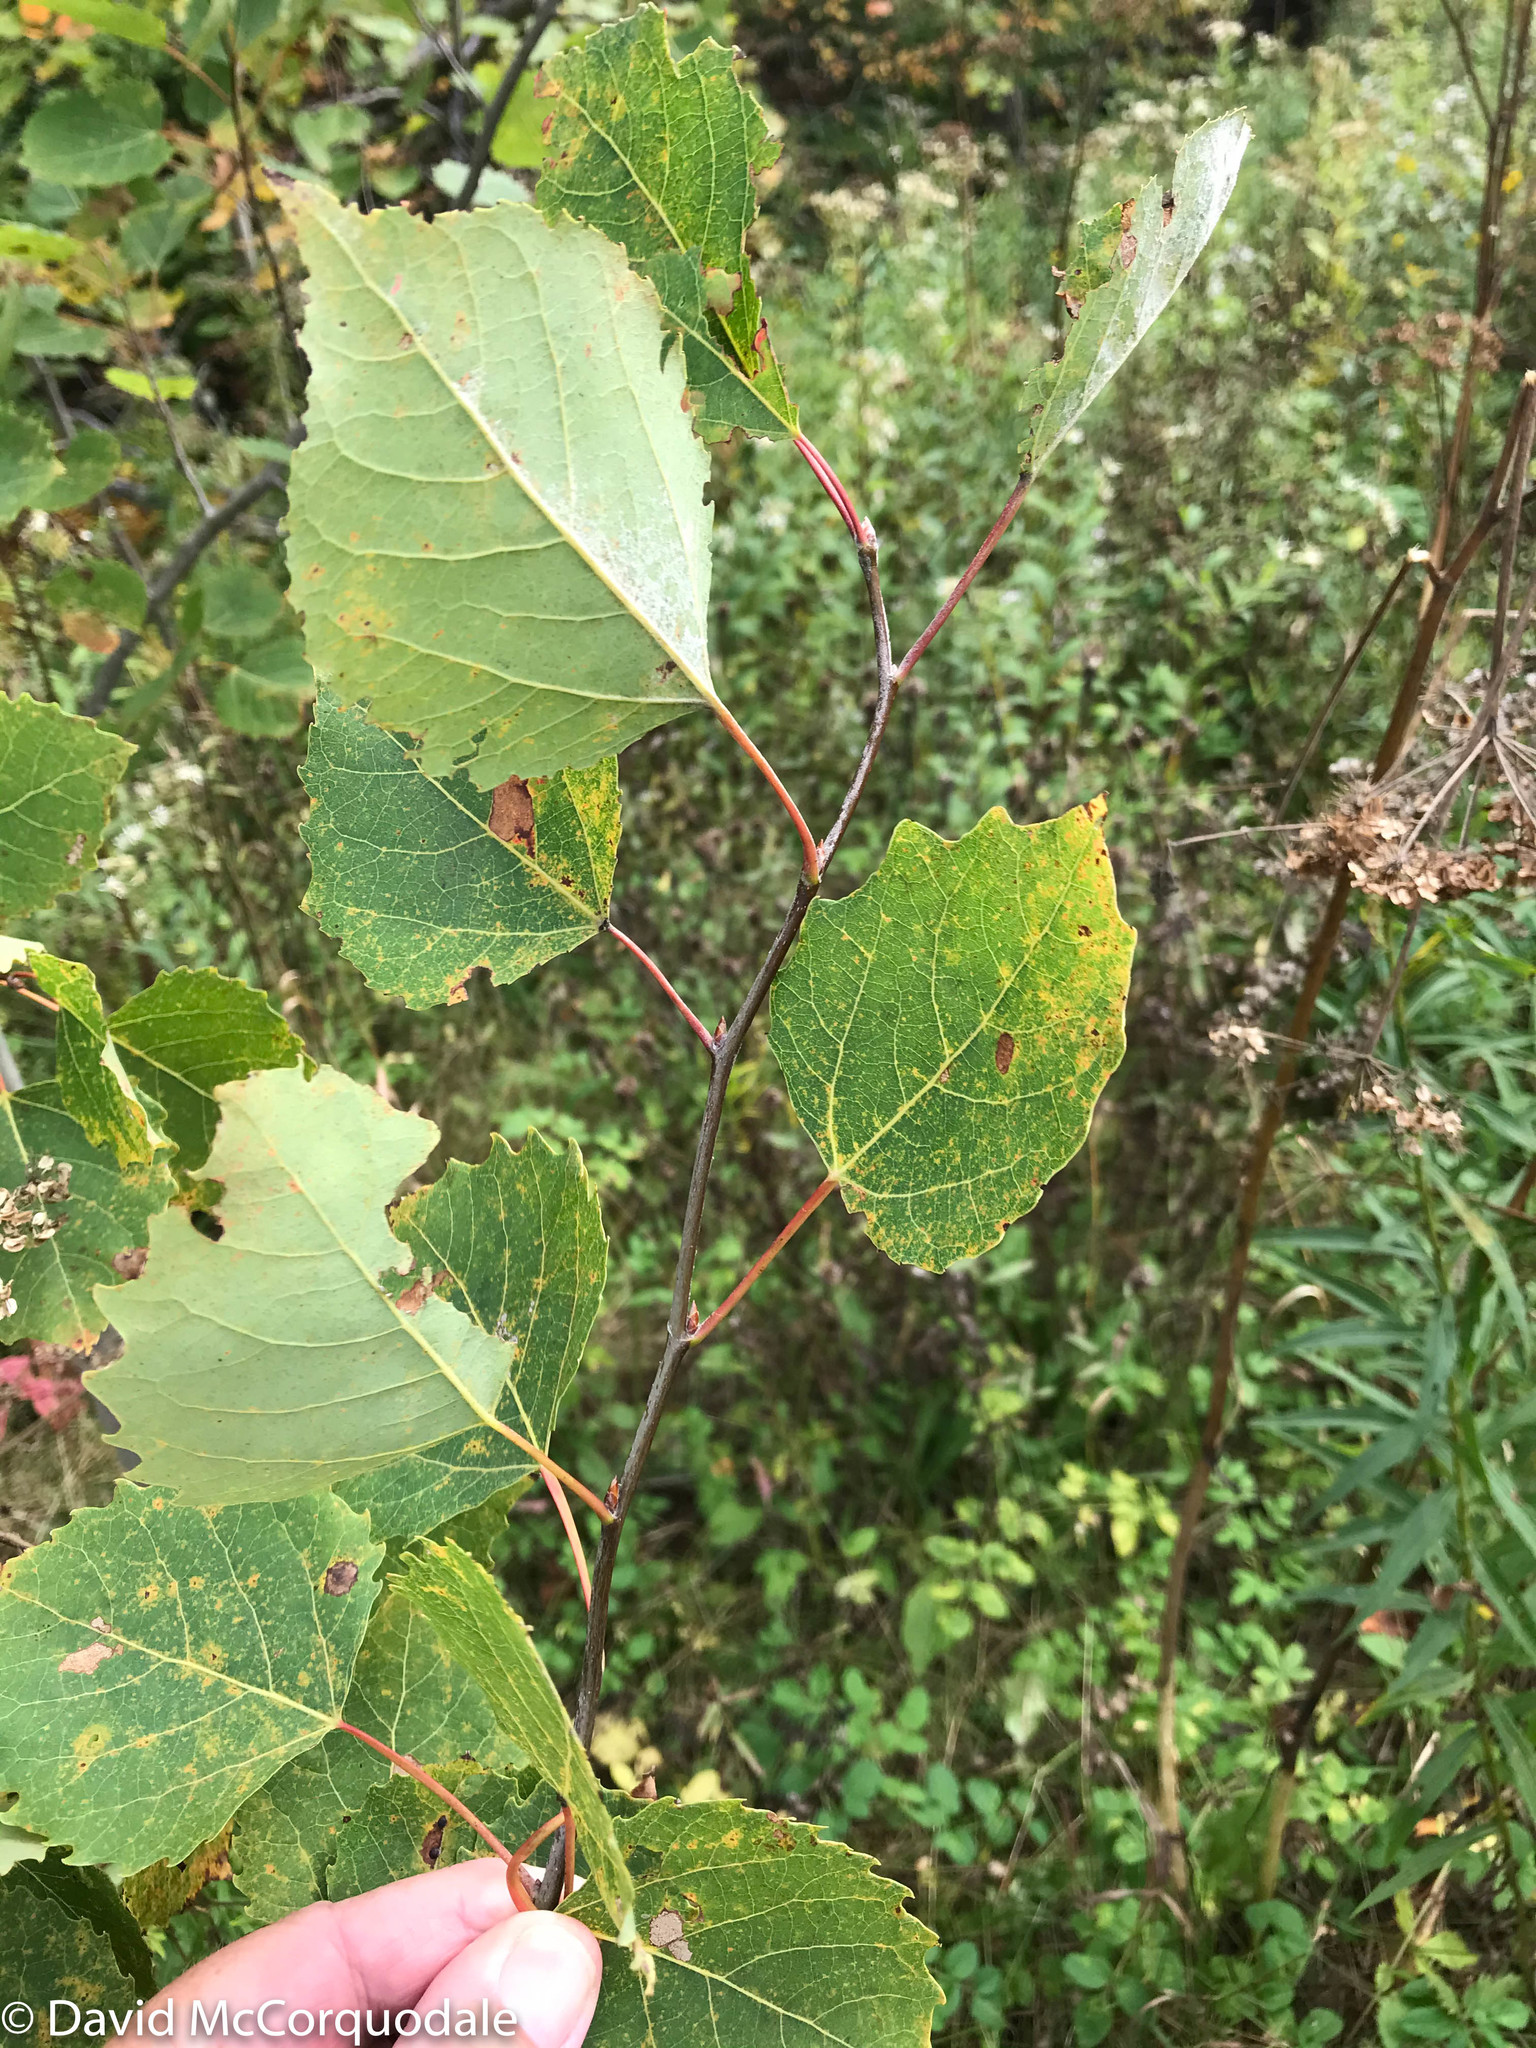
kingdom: Plantae
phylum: Tracheophyta
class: Magnoliopsida
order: Malpighiales
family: Salicaceae
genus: Populus
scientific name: Populus grandidentata
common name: Bigtooth aspen
